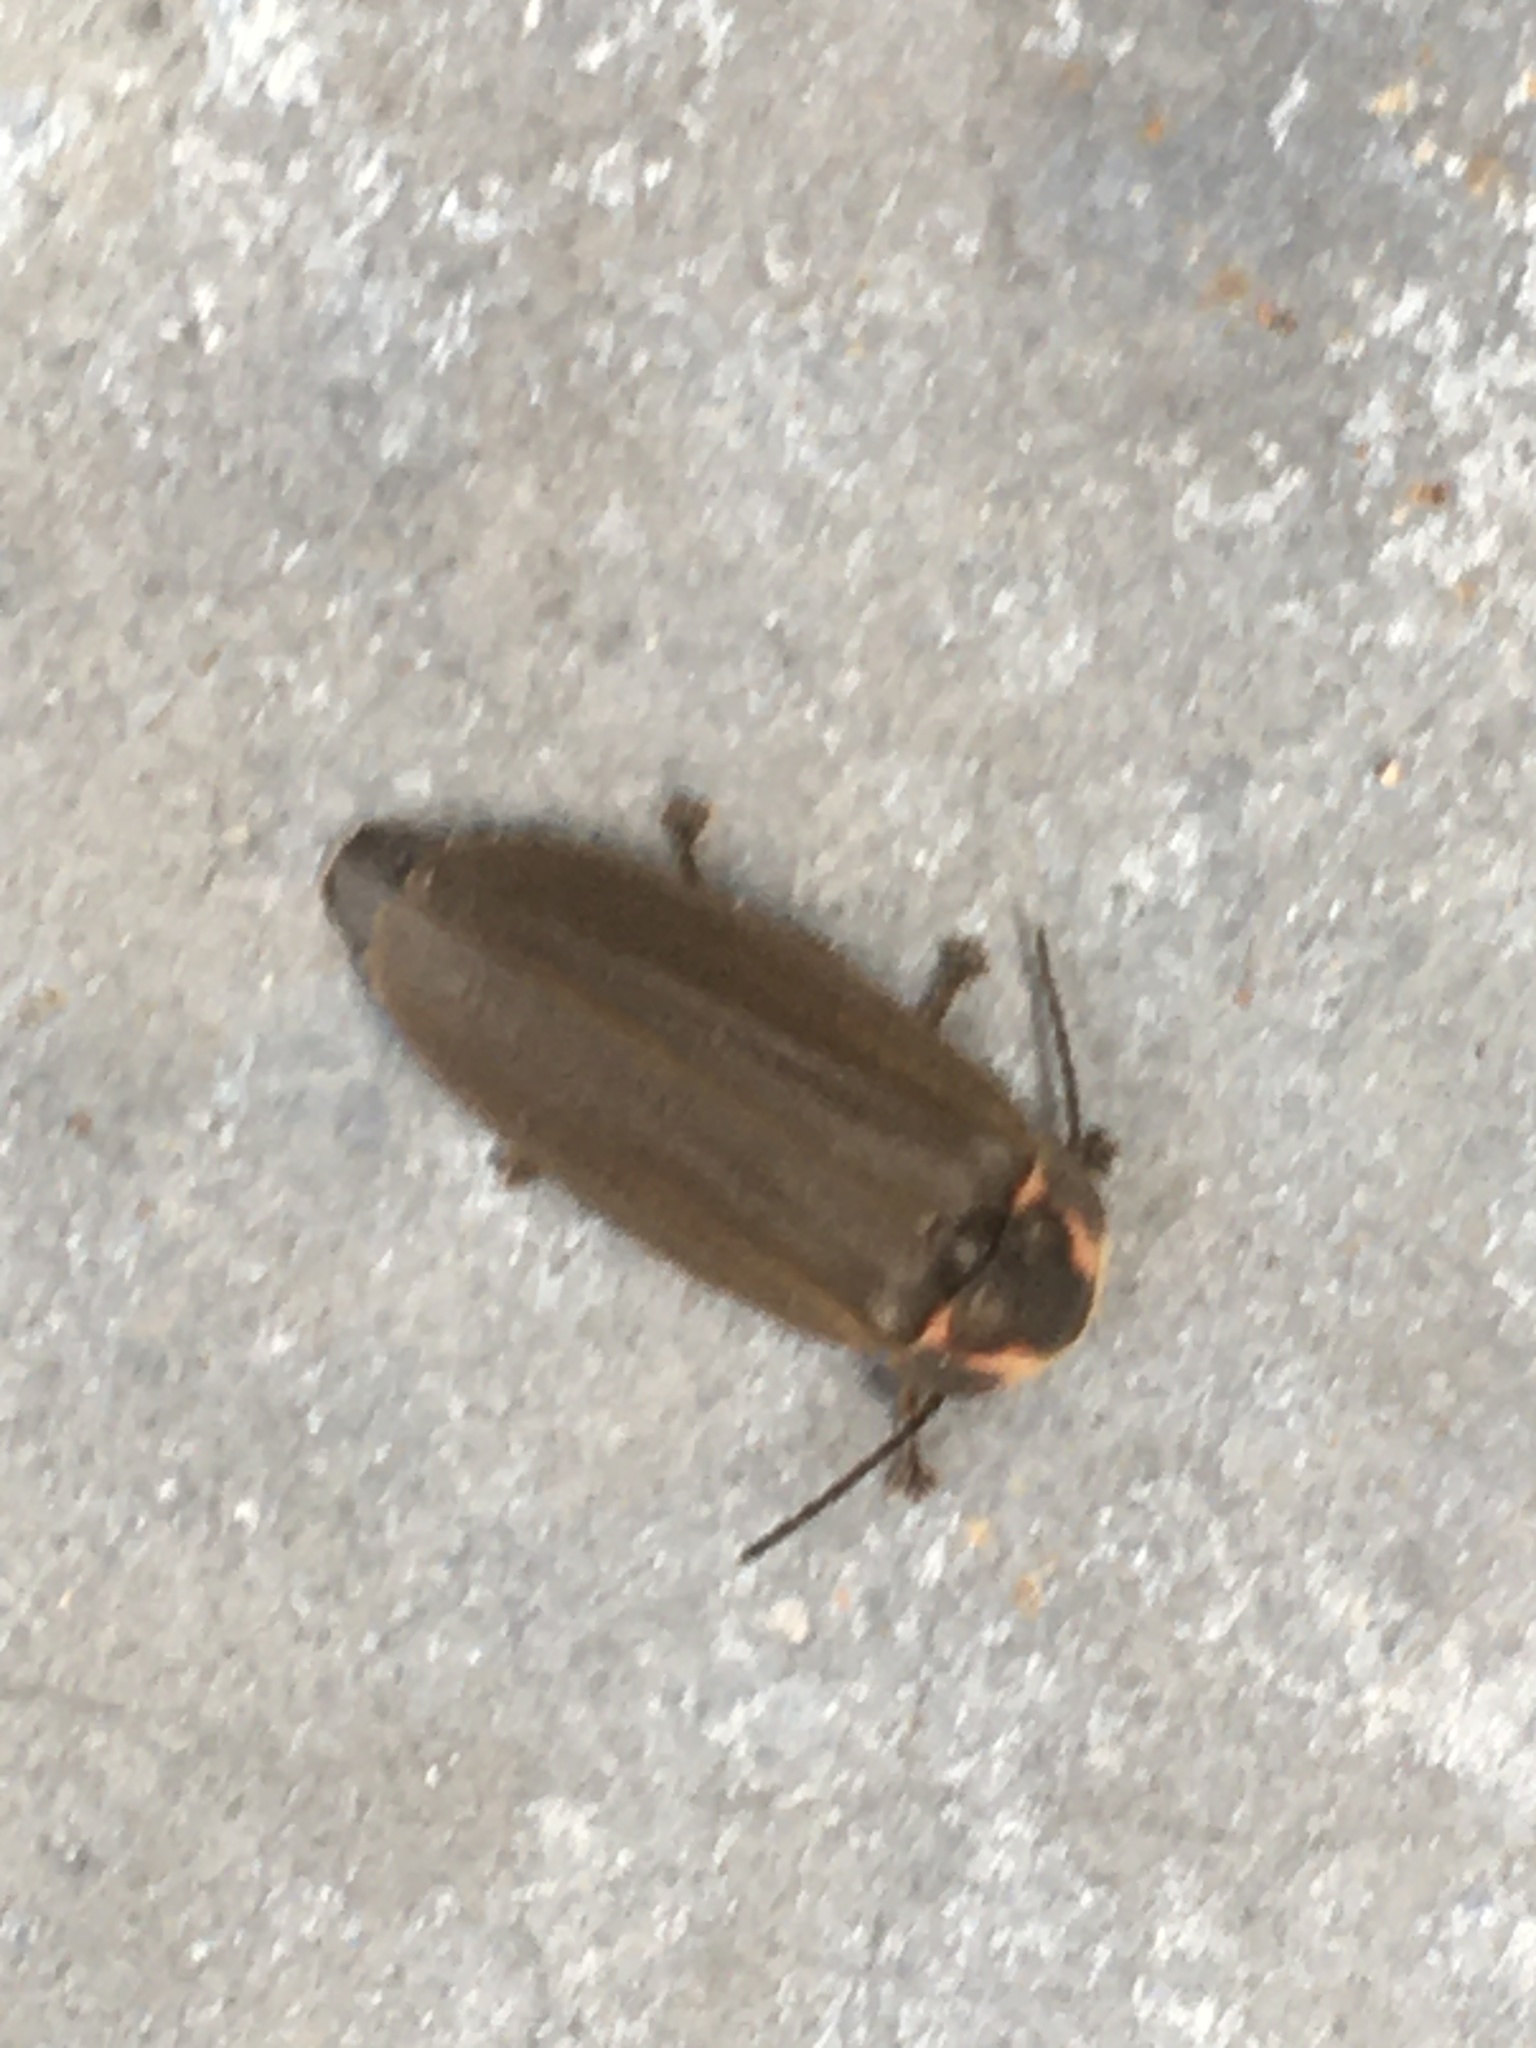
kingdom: Animalia
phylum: Arthropoda
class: Insecta
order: Coleoptera
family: Lampyridae
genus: Photinus
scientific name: Photinus corrusca
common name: Winter firefly
